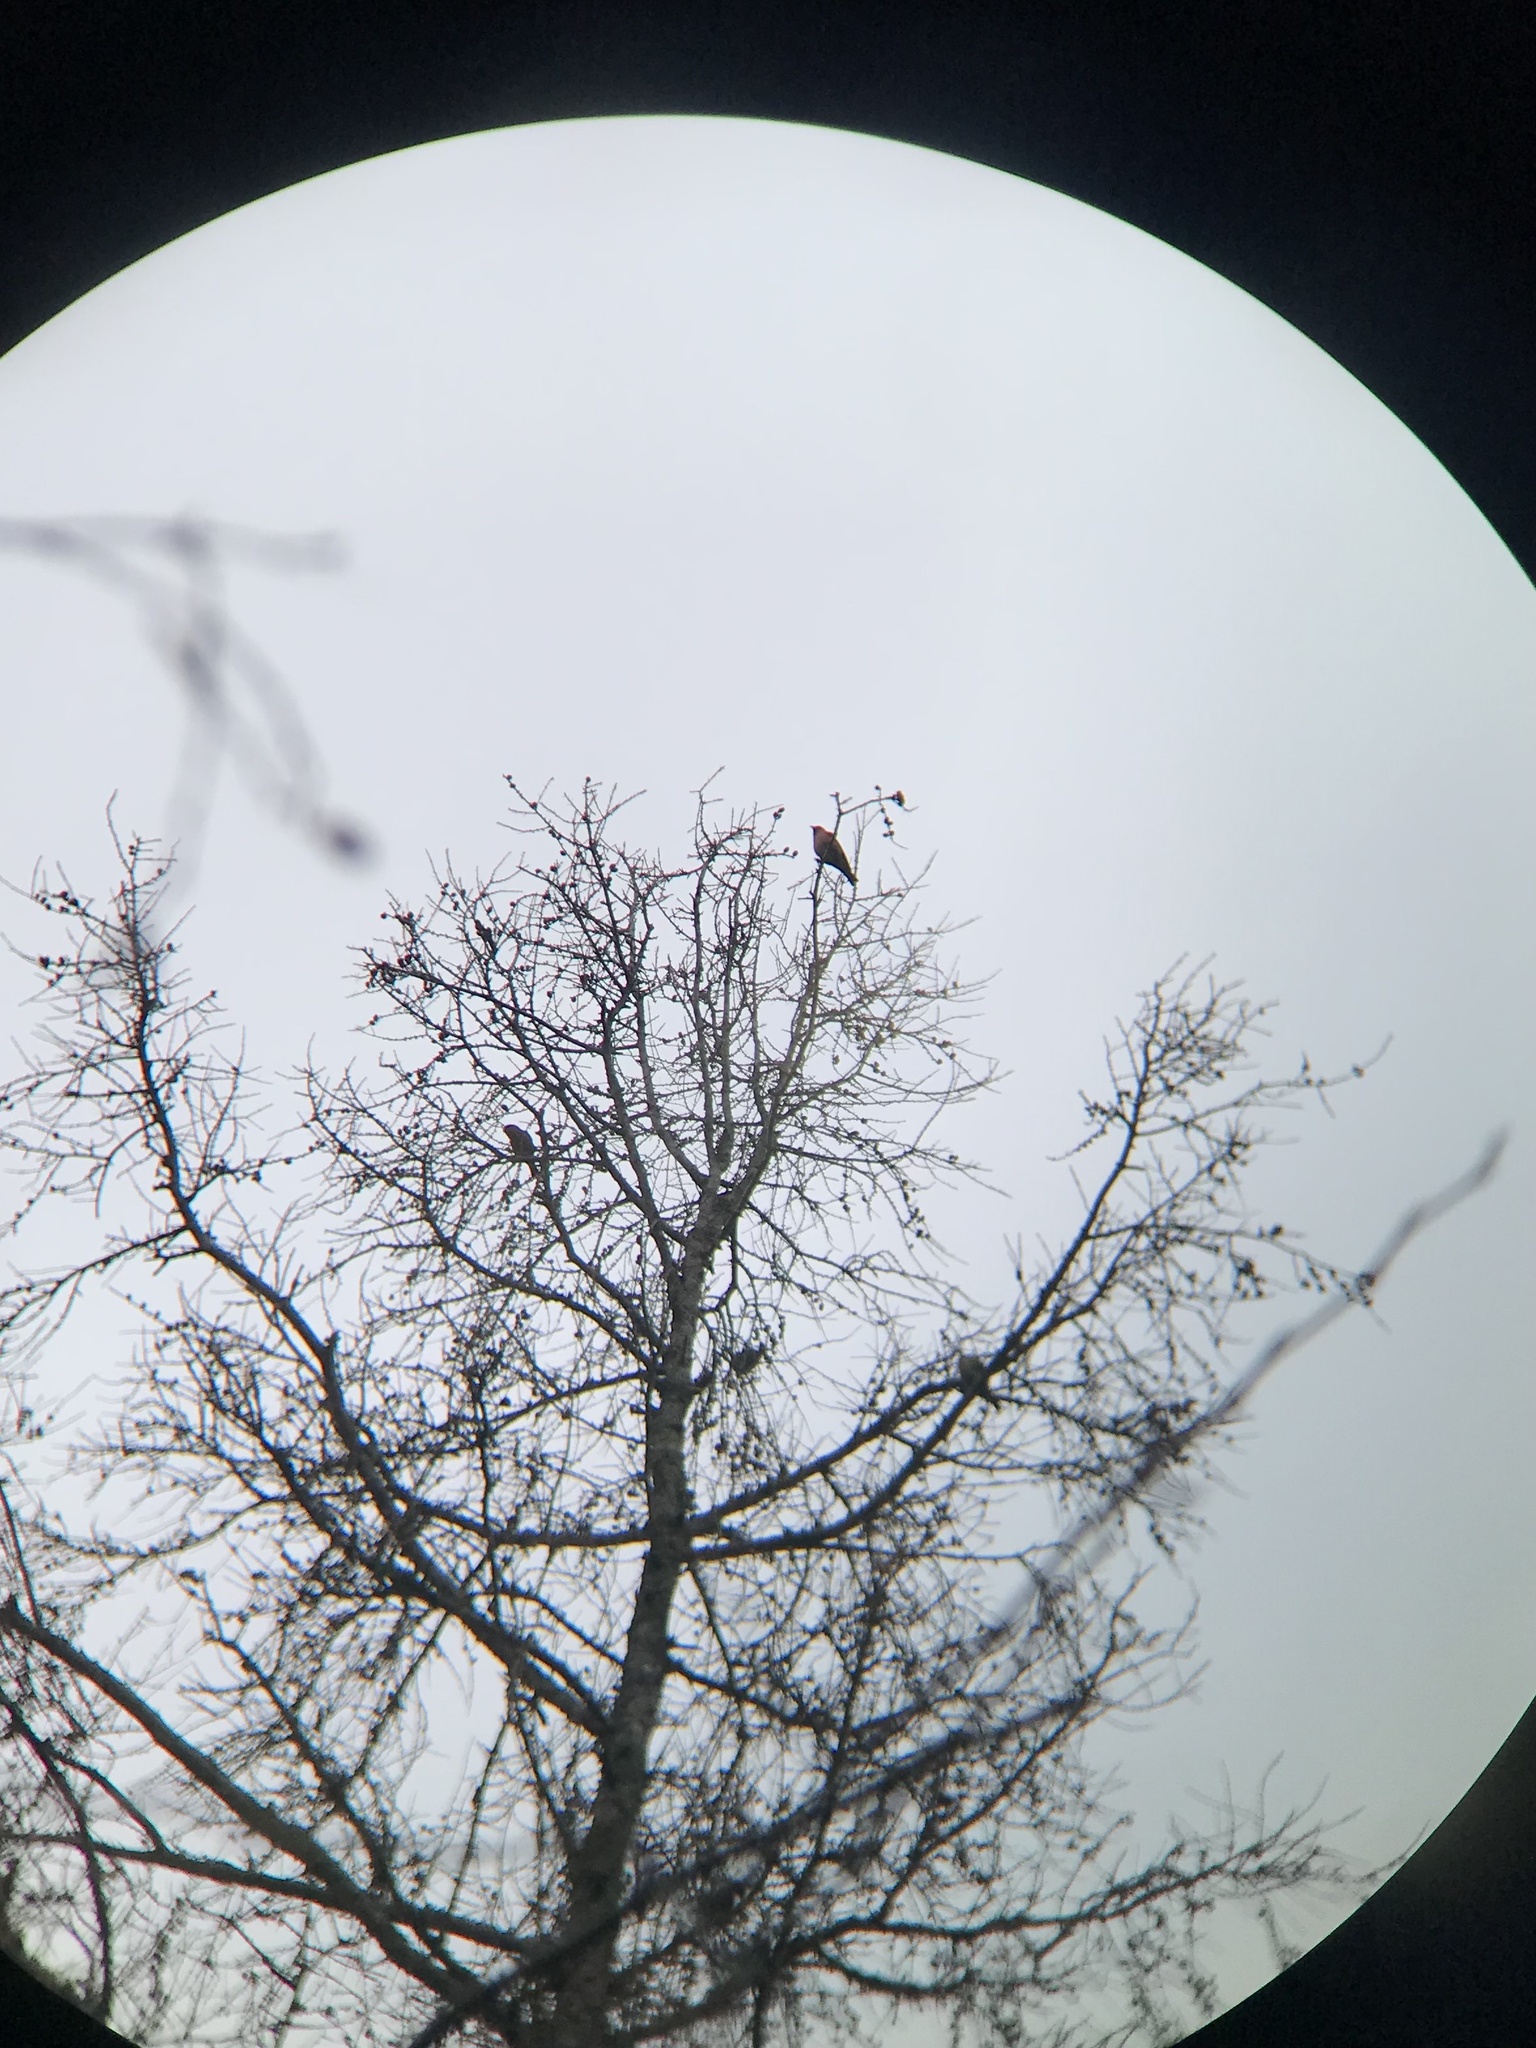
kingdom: Animalia
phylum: Chordata
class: Aves
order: Passeriformes
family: Fringillidae
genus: Loxia
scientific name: Loxia leucoptera
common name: Two-barred crossbill
